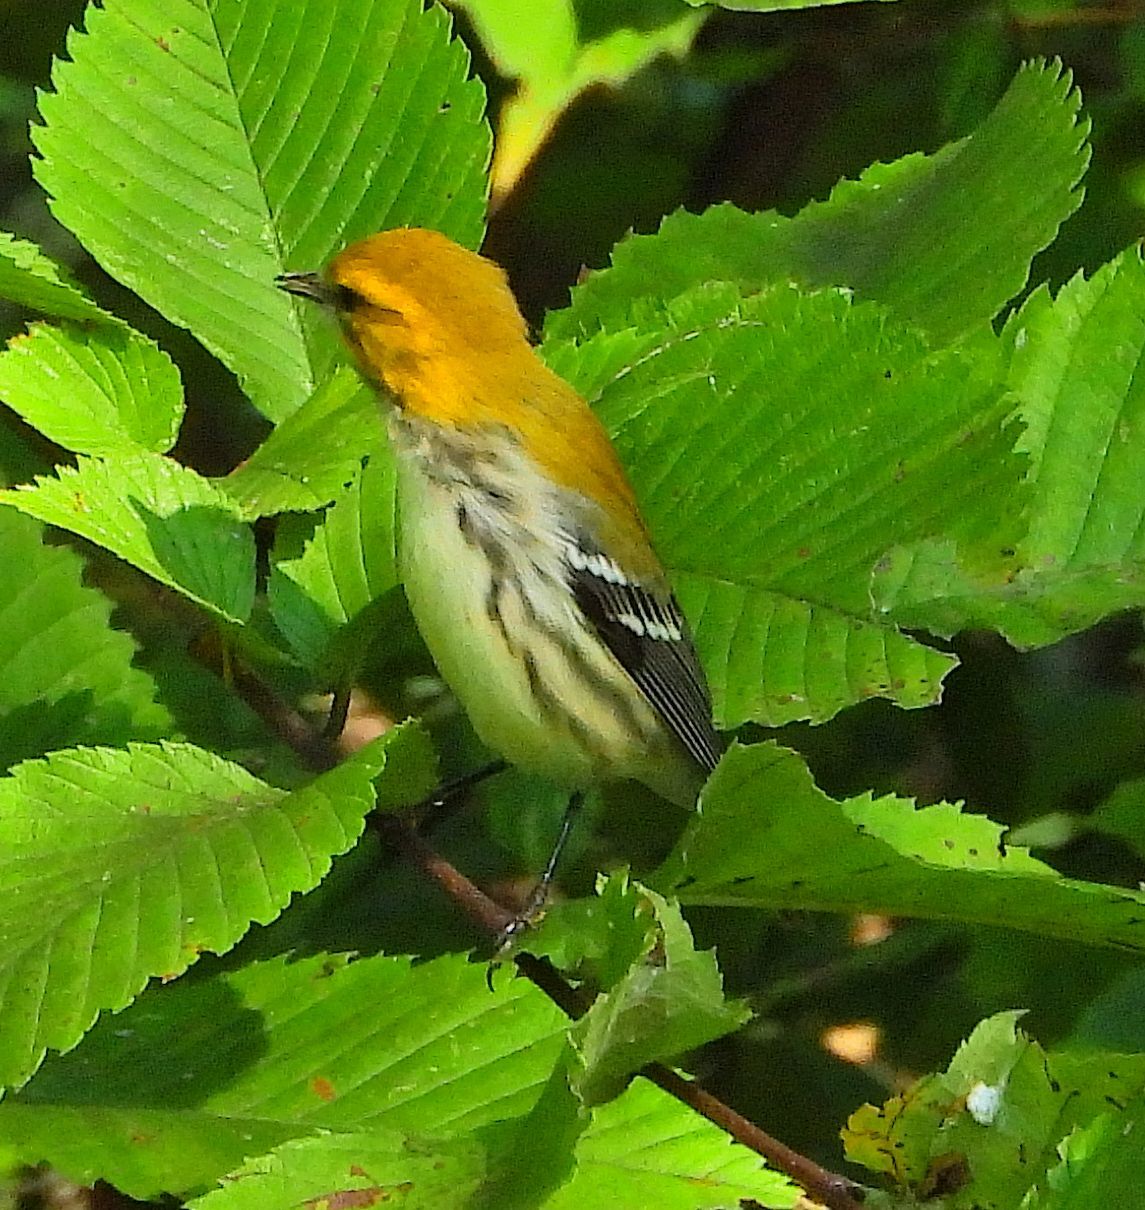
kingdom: Animalia
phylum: Chordata
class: Aves
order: Passeriformes
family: Parulidae
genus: Setophaga
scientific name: Setophaga virens
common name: Black-throated green warbler
